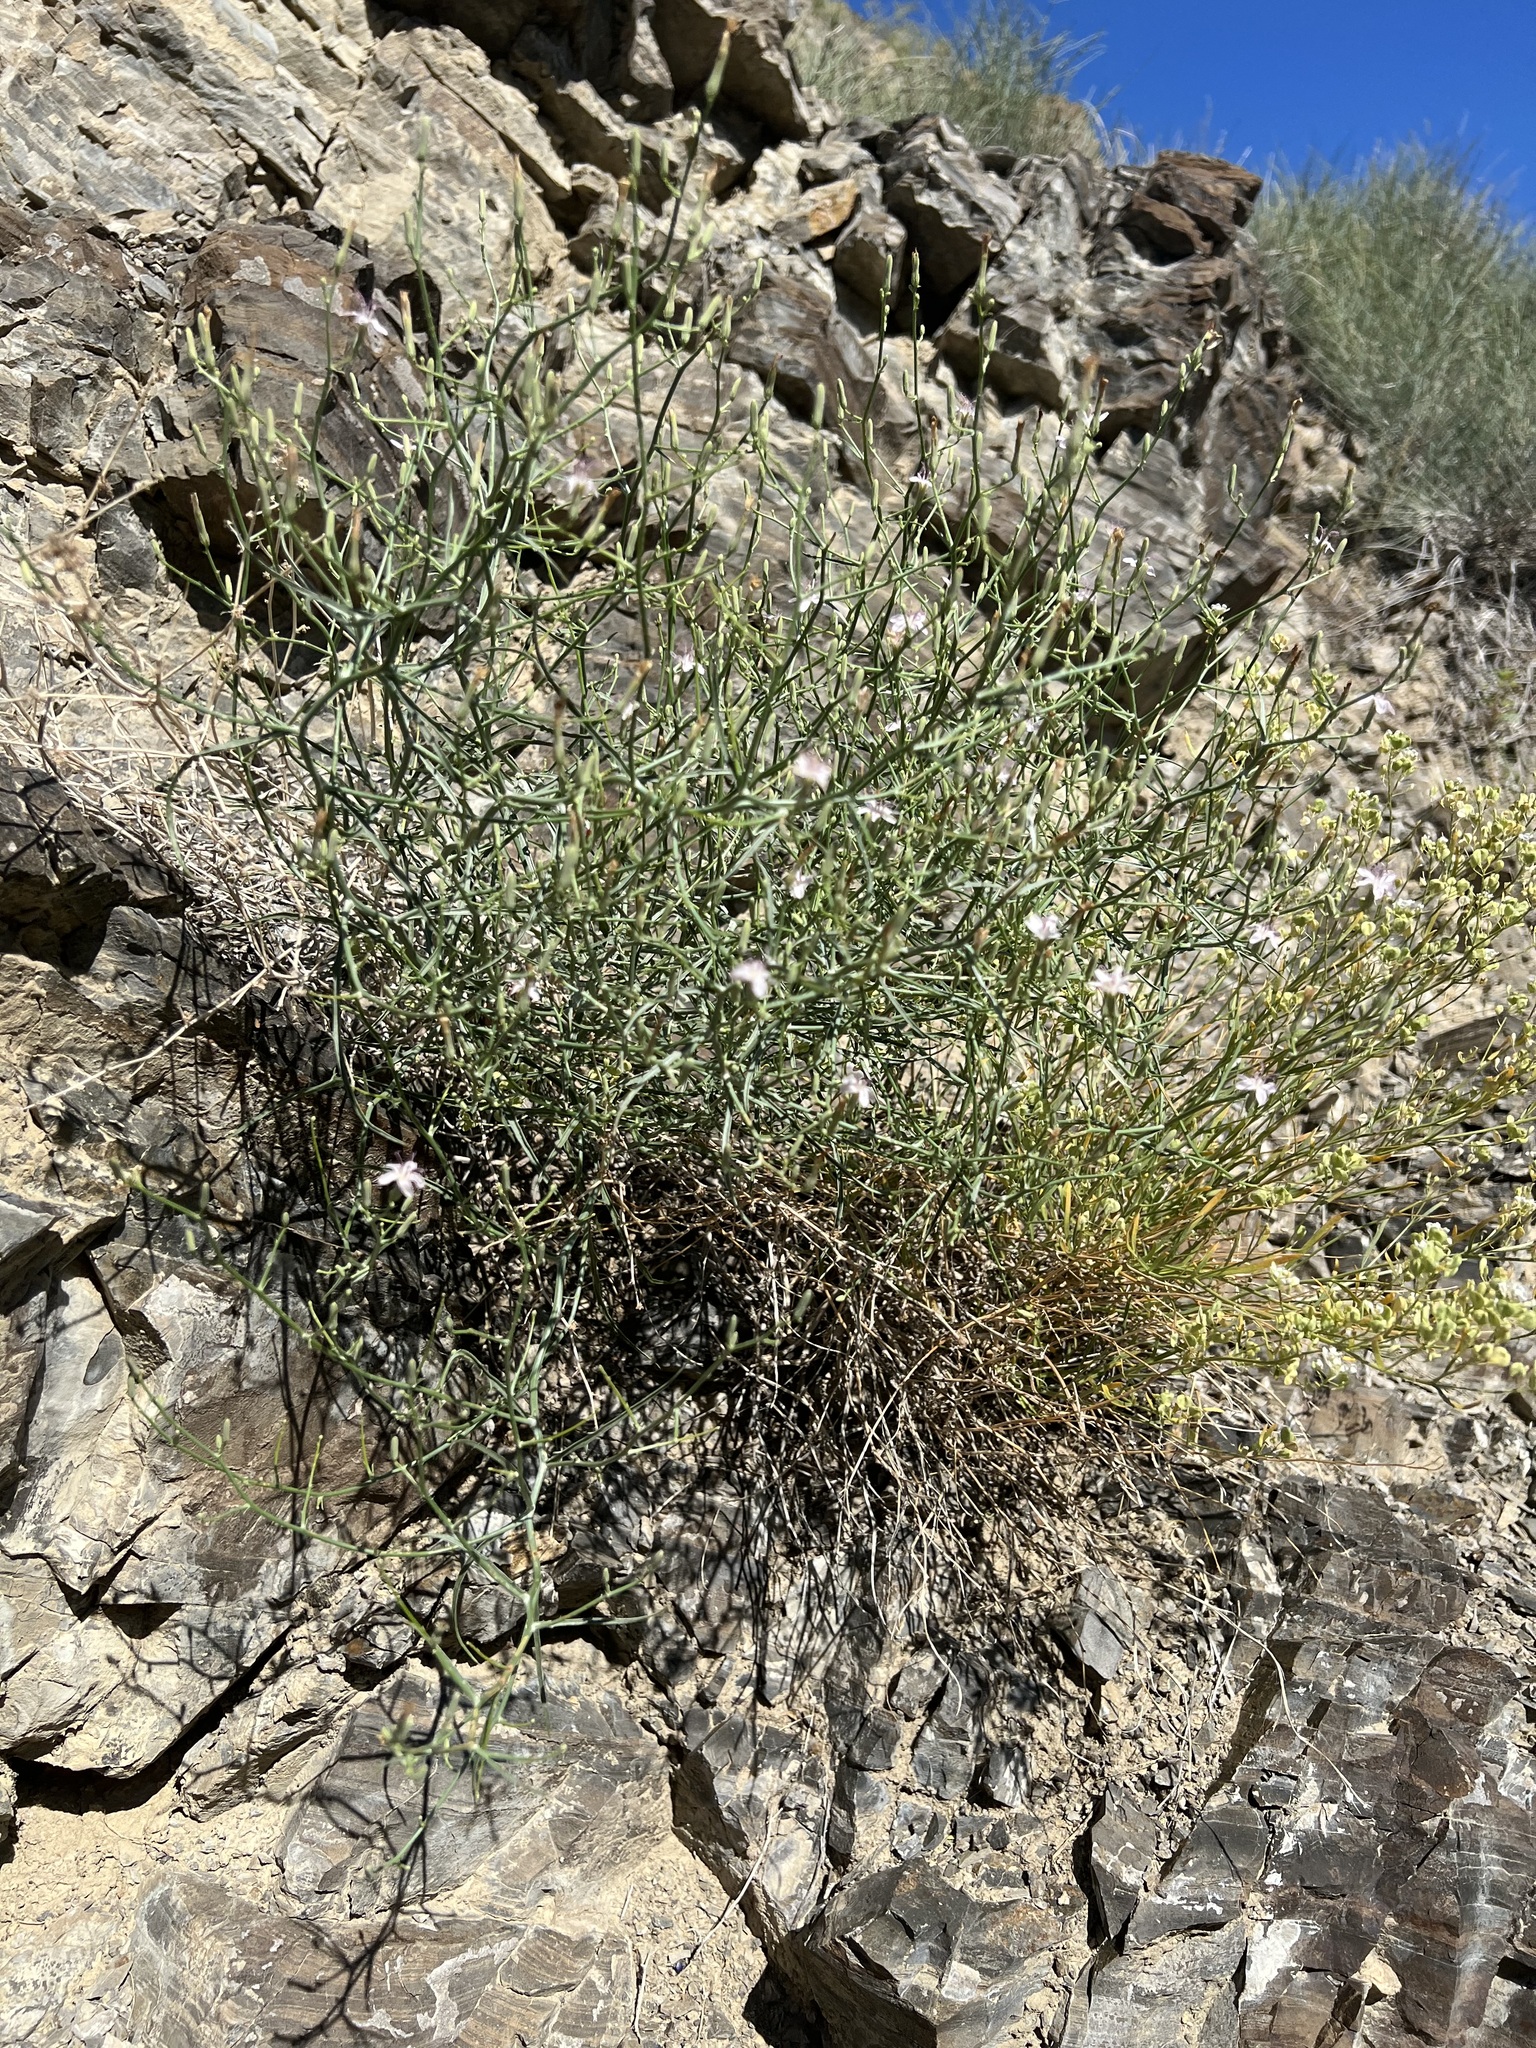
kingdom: Plantae
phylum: Tracheophyta
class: Magnoliopsida
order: Asterales
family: Asteraceae
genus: Stephanomeria
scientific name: Stephanomeria pauciflora
